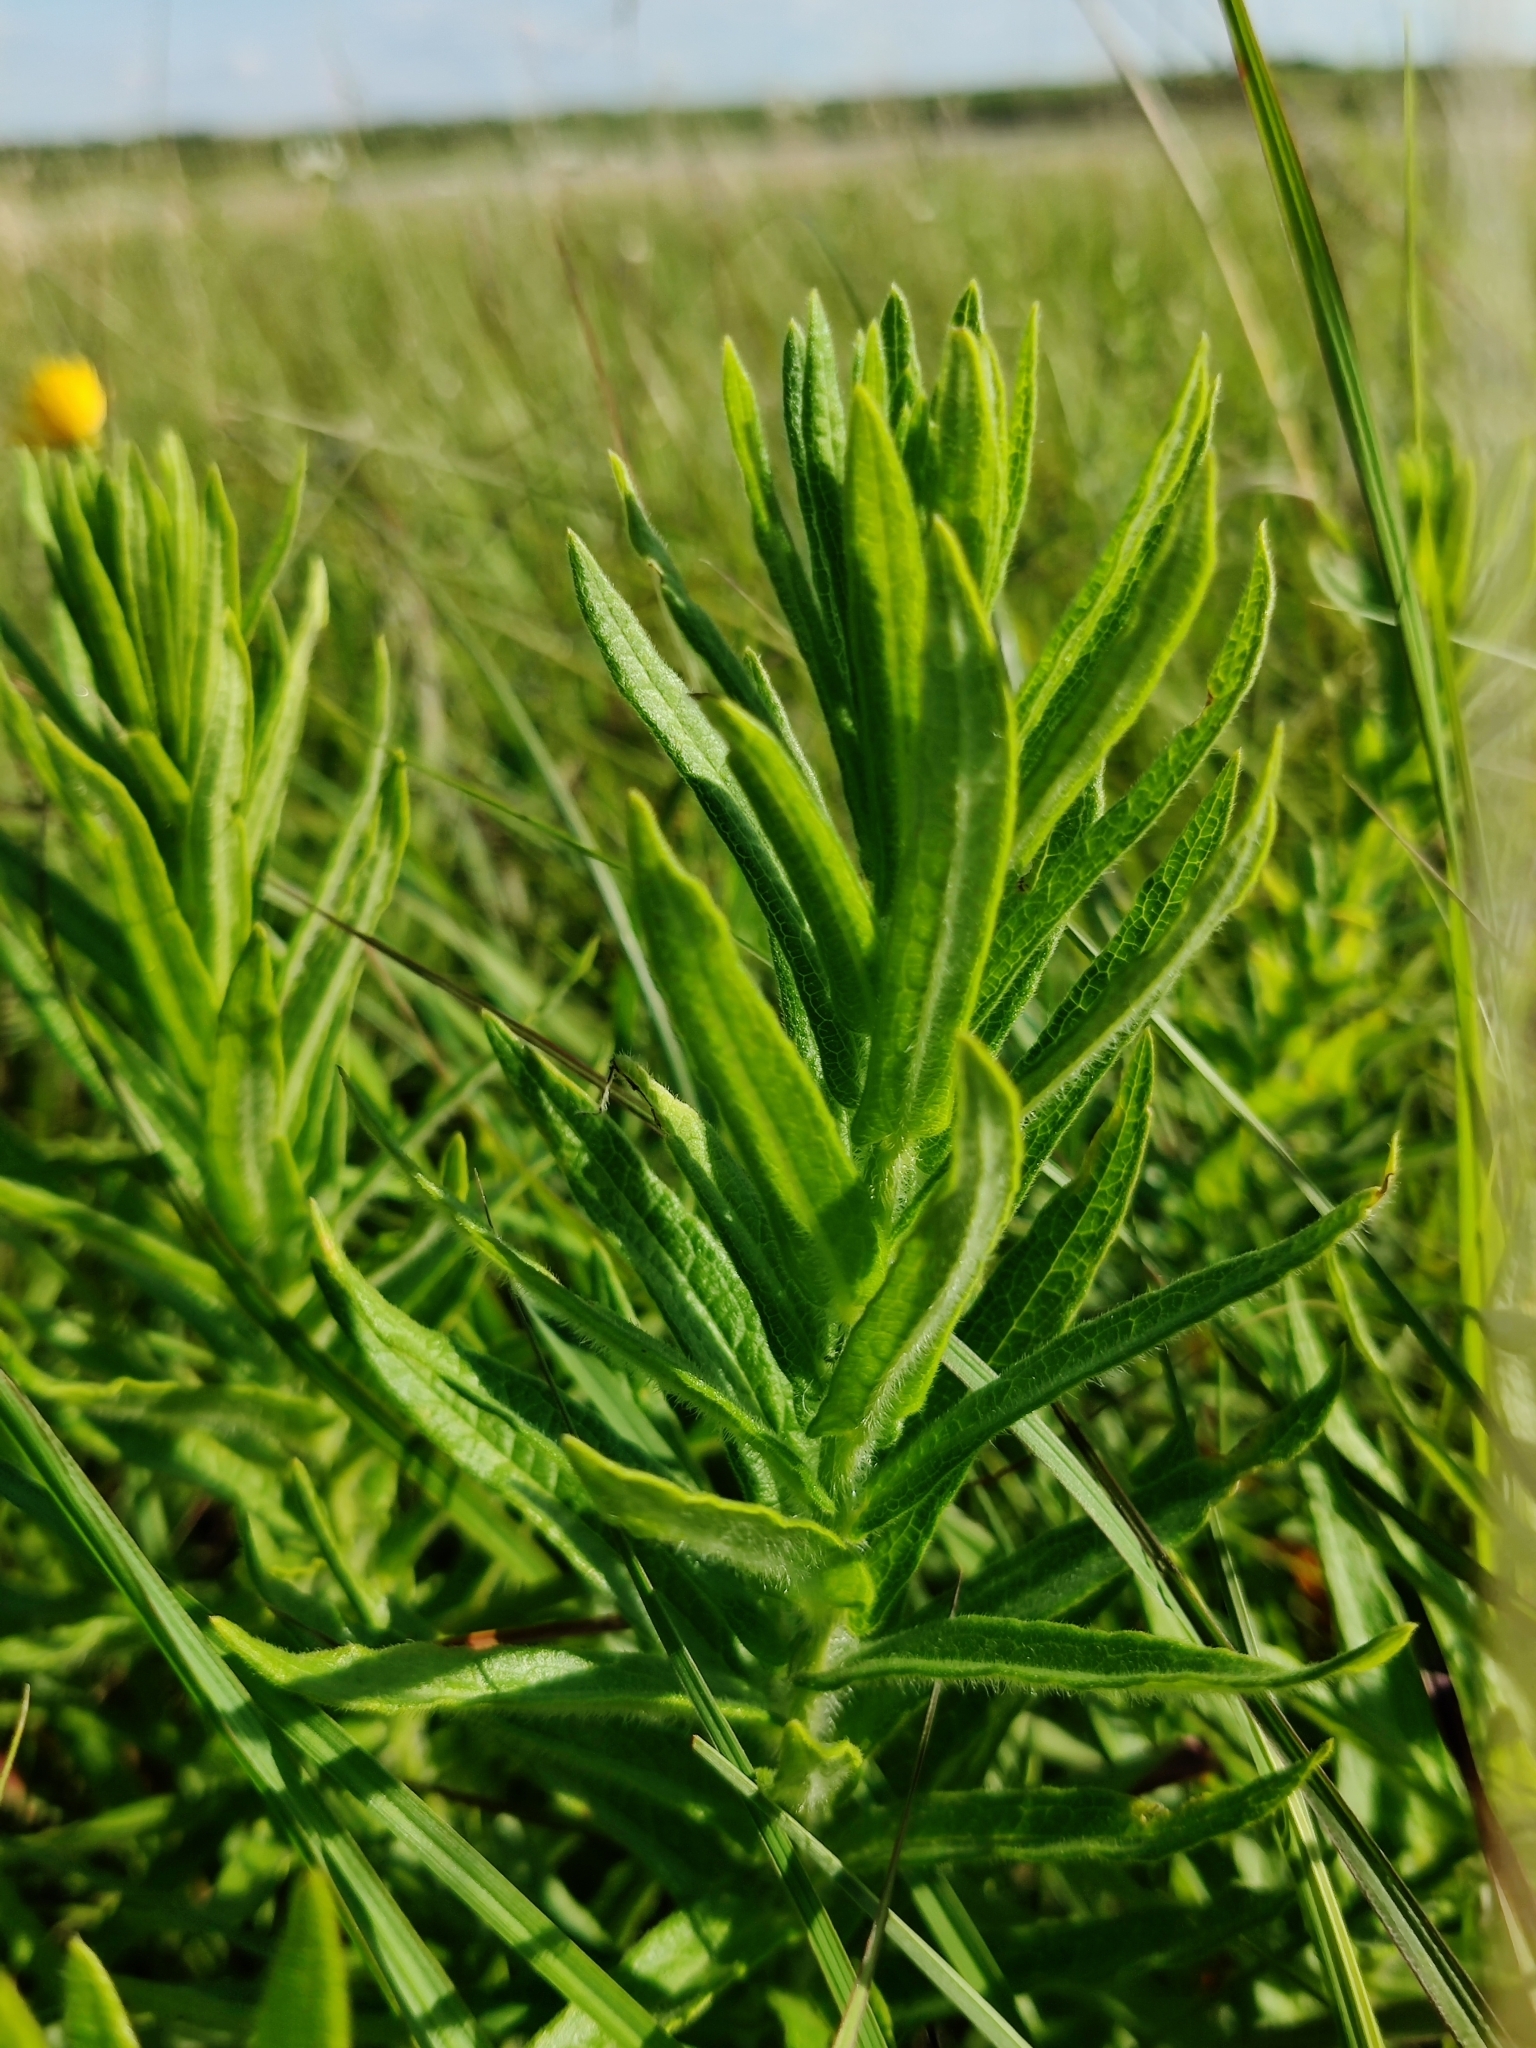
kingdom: Plantae
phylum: Tracheophyta
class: Magnoliopsida
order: Gentianales
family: Apocynaceae
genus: Asclepias
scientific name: Asclepias tuberosa
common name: Butterfly milkweed
